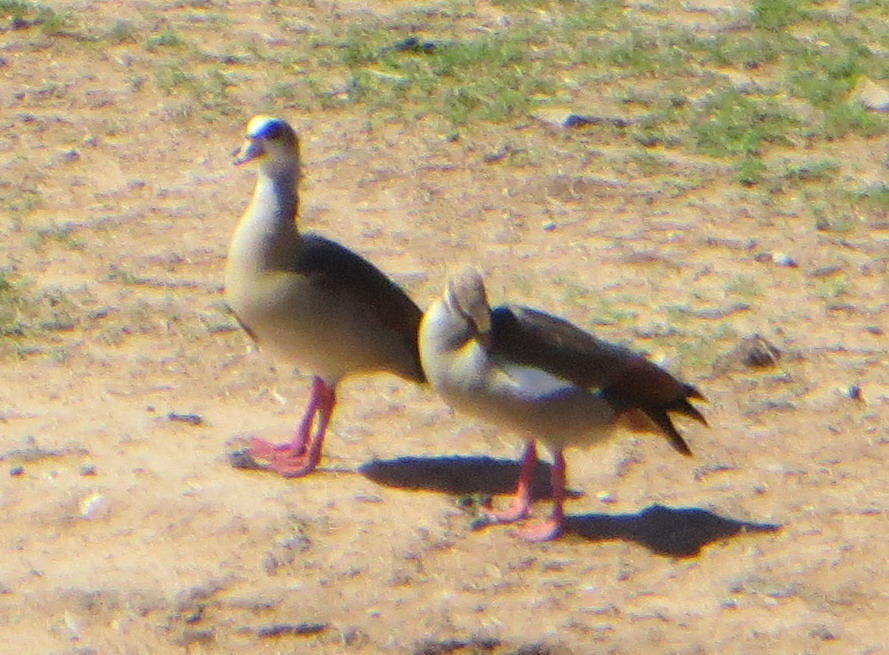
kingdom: Animalia
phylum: Chordata
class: Aves
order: Anseriformes
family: Anatidae
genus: Alopochen
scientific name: Alopochen aegyptiaca
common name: Egyptian goose
